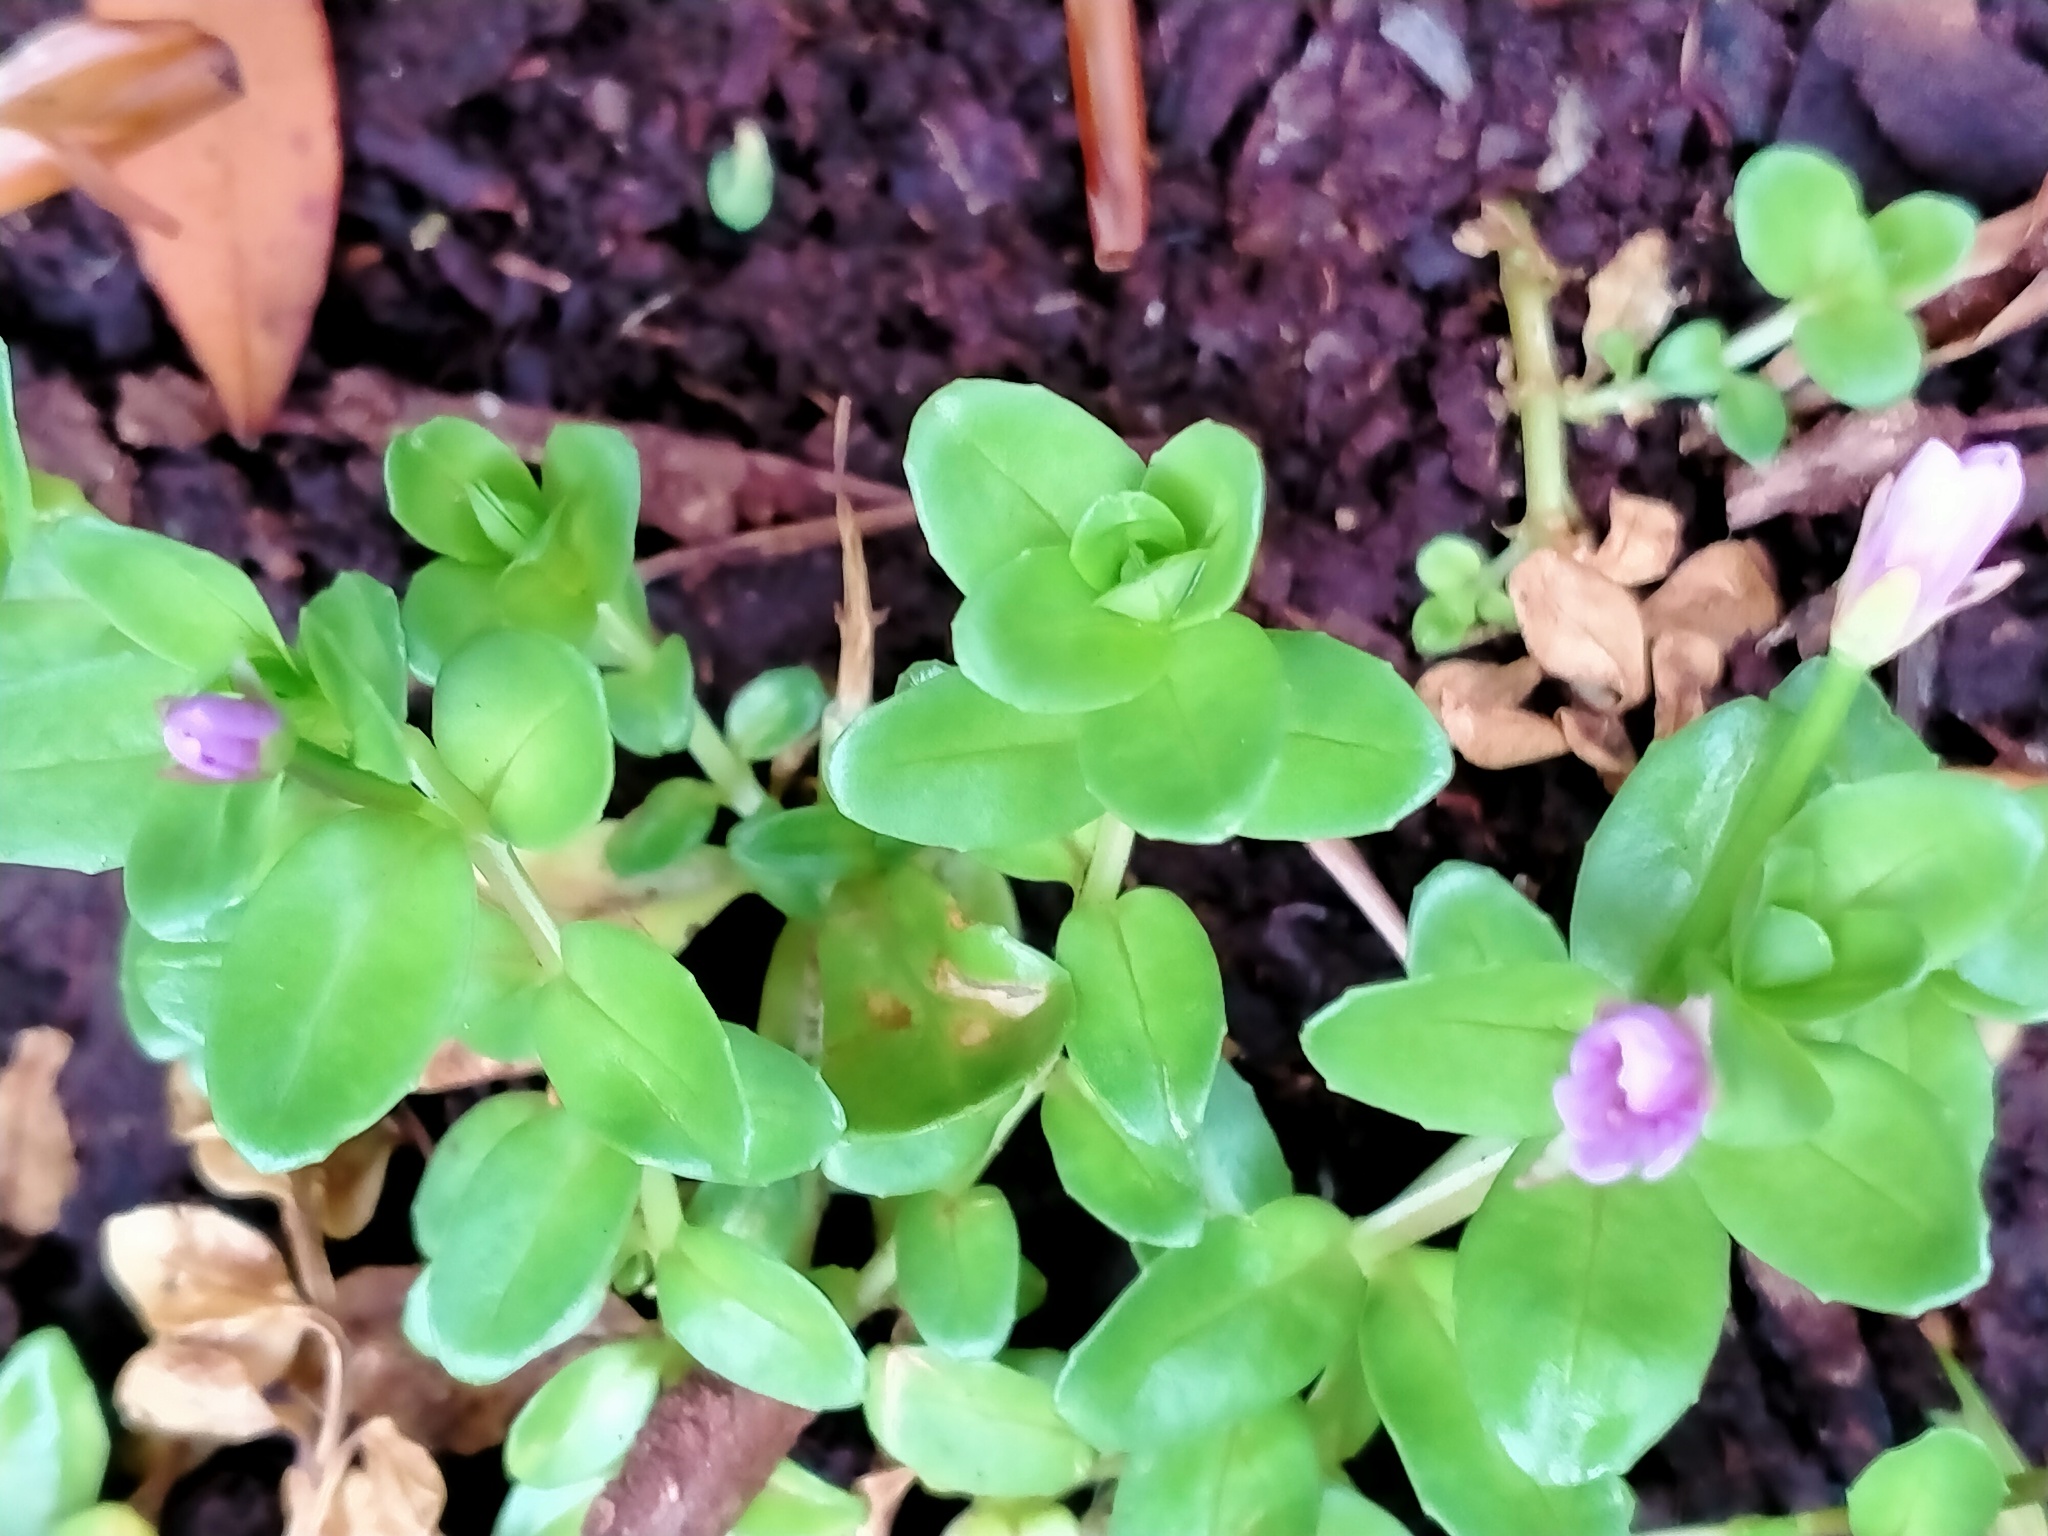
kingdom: Plantae
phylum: Tracheophyta
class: Magnoliopsida
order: Myrtales
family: Onagraceae
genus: Epilobium
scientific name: Epilobium confertifolium
